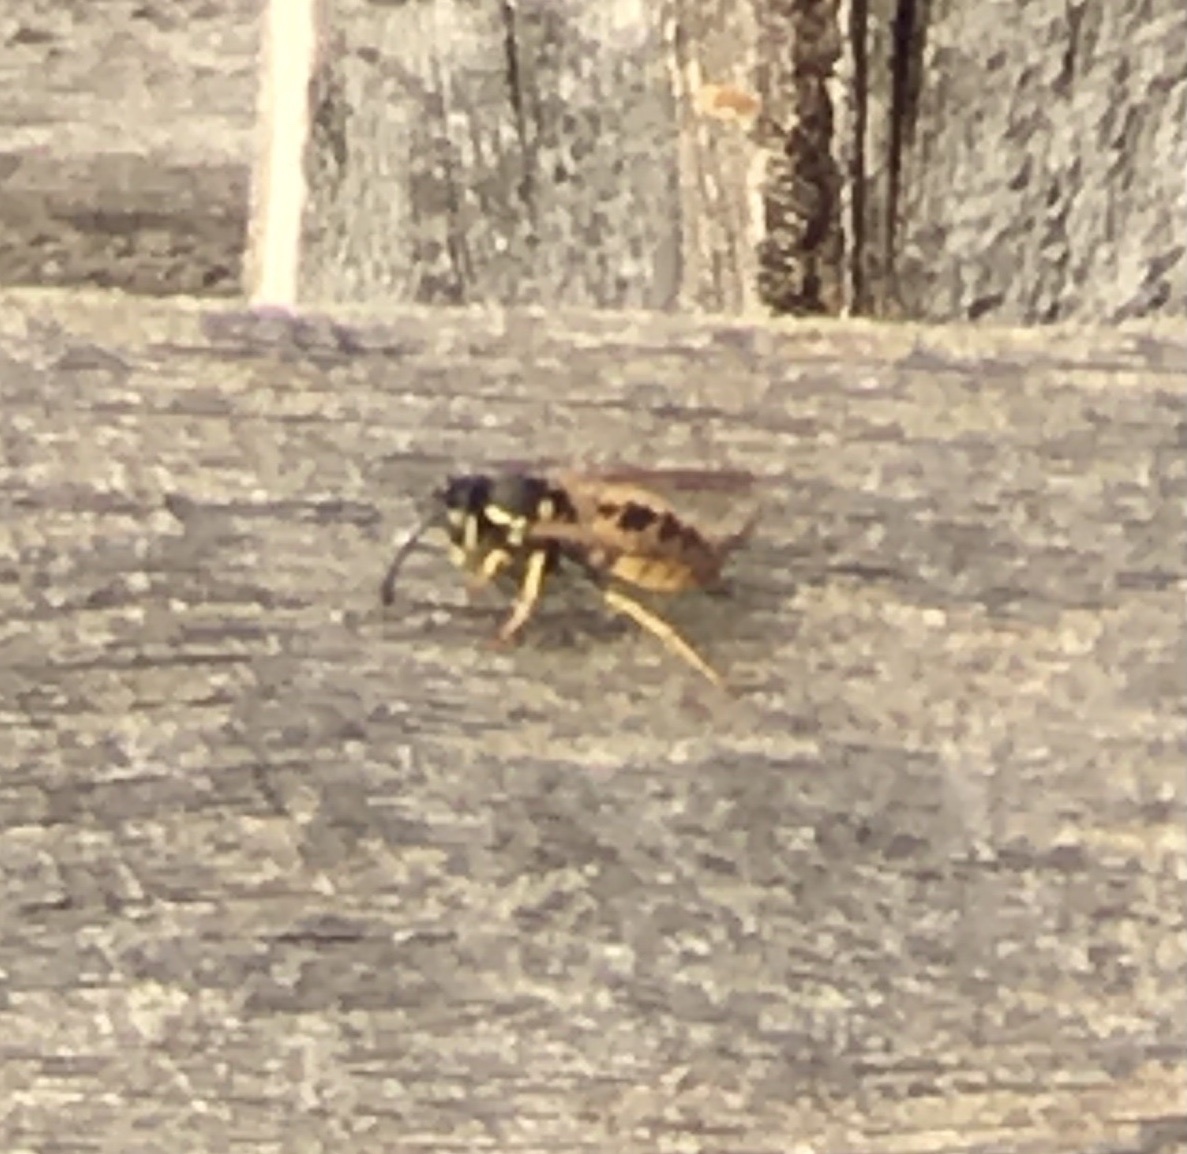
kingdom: Animalia
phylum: Arthropoda
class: Insecta
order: Hymenoptera
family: Vespidae
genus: Vespula
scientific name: Vespula germanica
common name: German wasp
